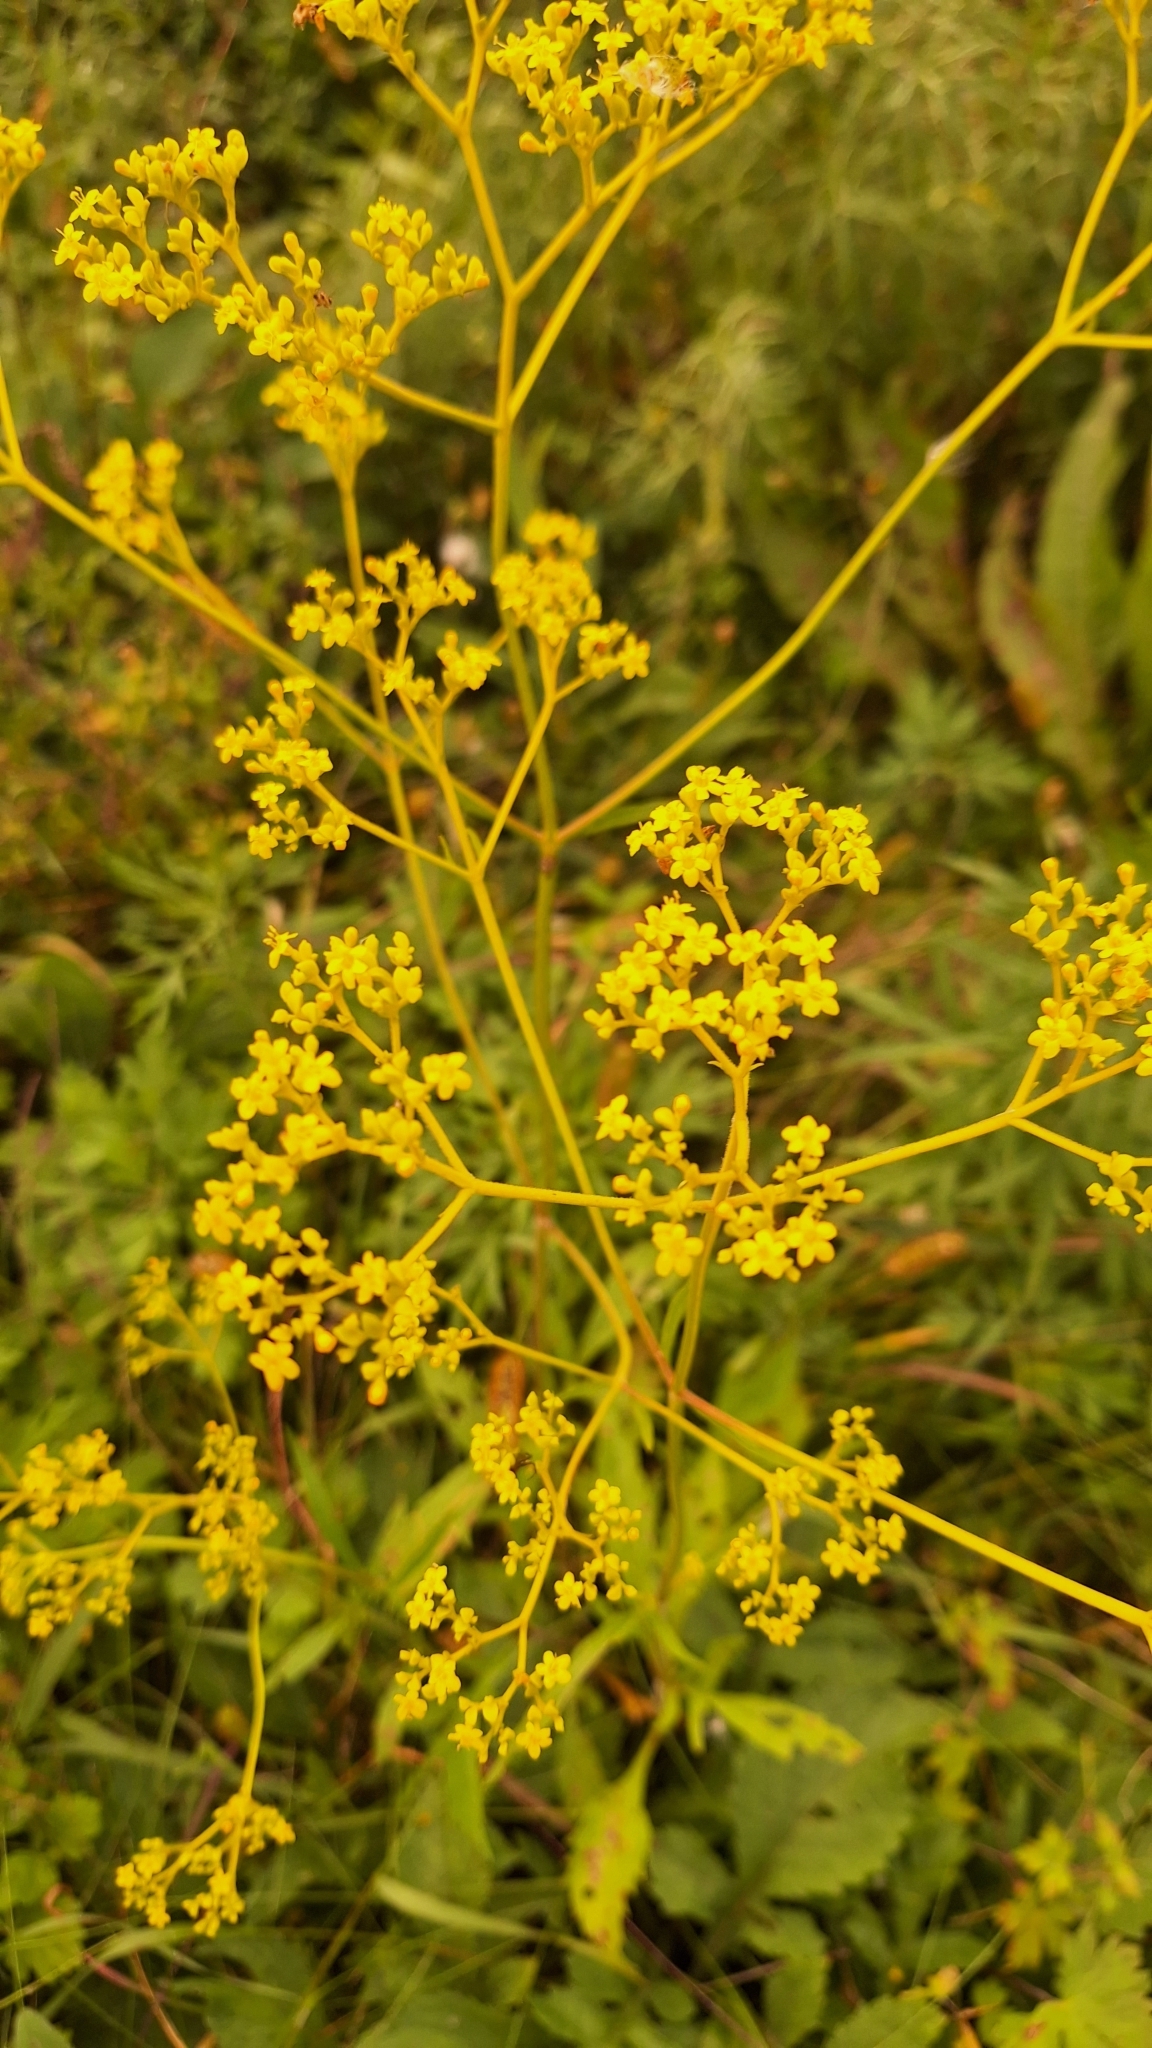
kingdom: Plantae
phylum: Tracheophyta
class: Magnoliopsida
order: Dipsacales
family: Caprifoliaceae
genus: Patrinia
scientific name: Patrinia scabiosifolia
